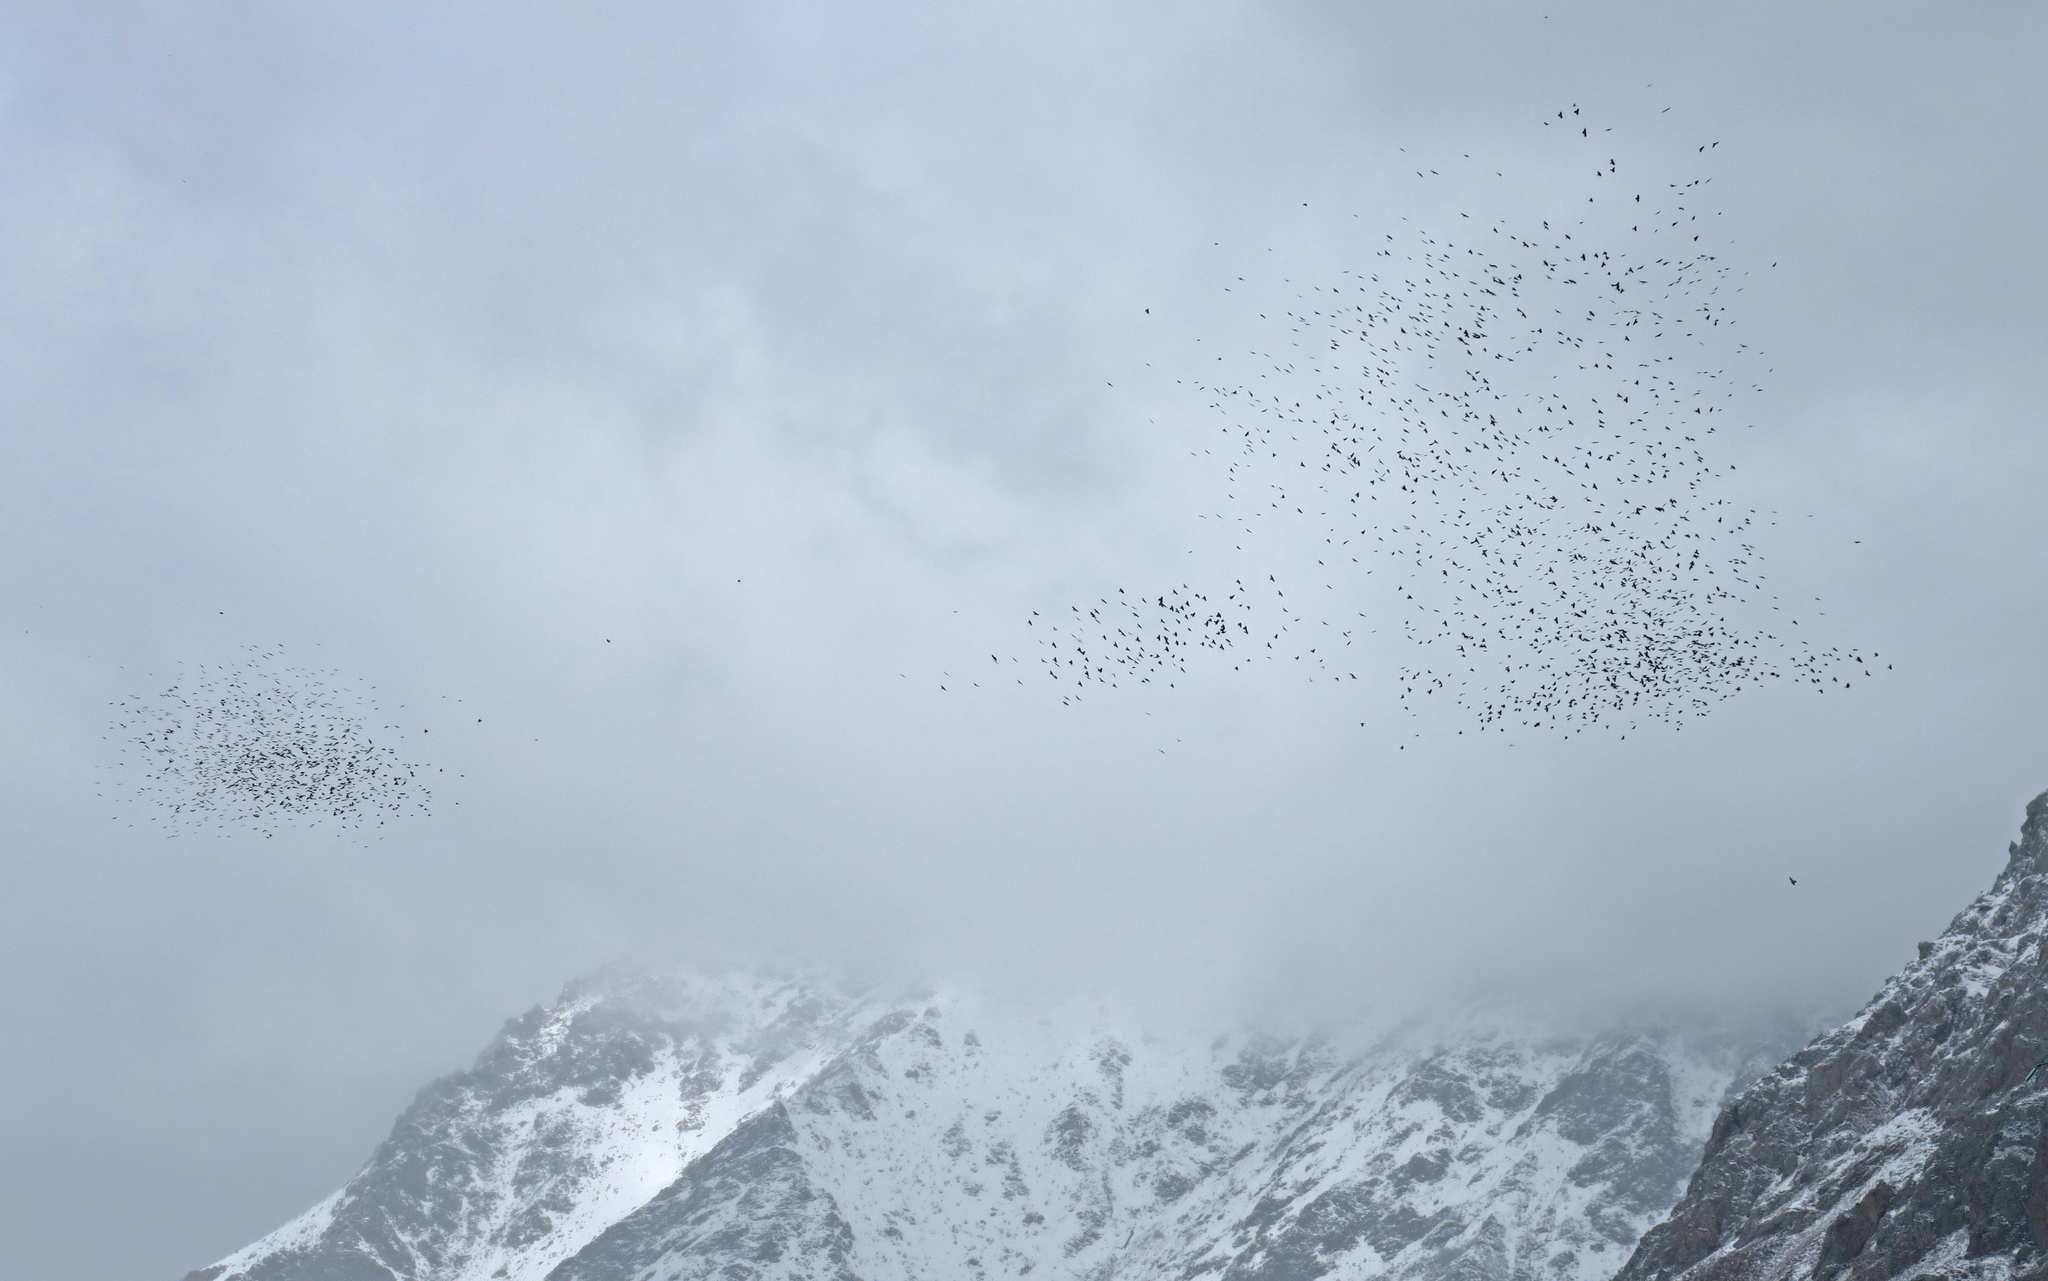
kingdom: Animalia
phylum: Chordata
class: Aves
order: Passeriformes
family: Corvidae
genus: Pyrrhocorax
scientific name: Pyrrhocorax graculus
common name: Alpine chough
